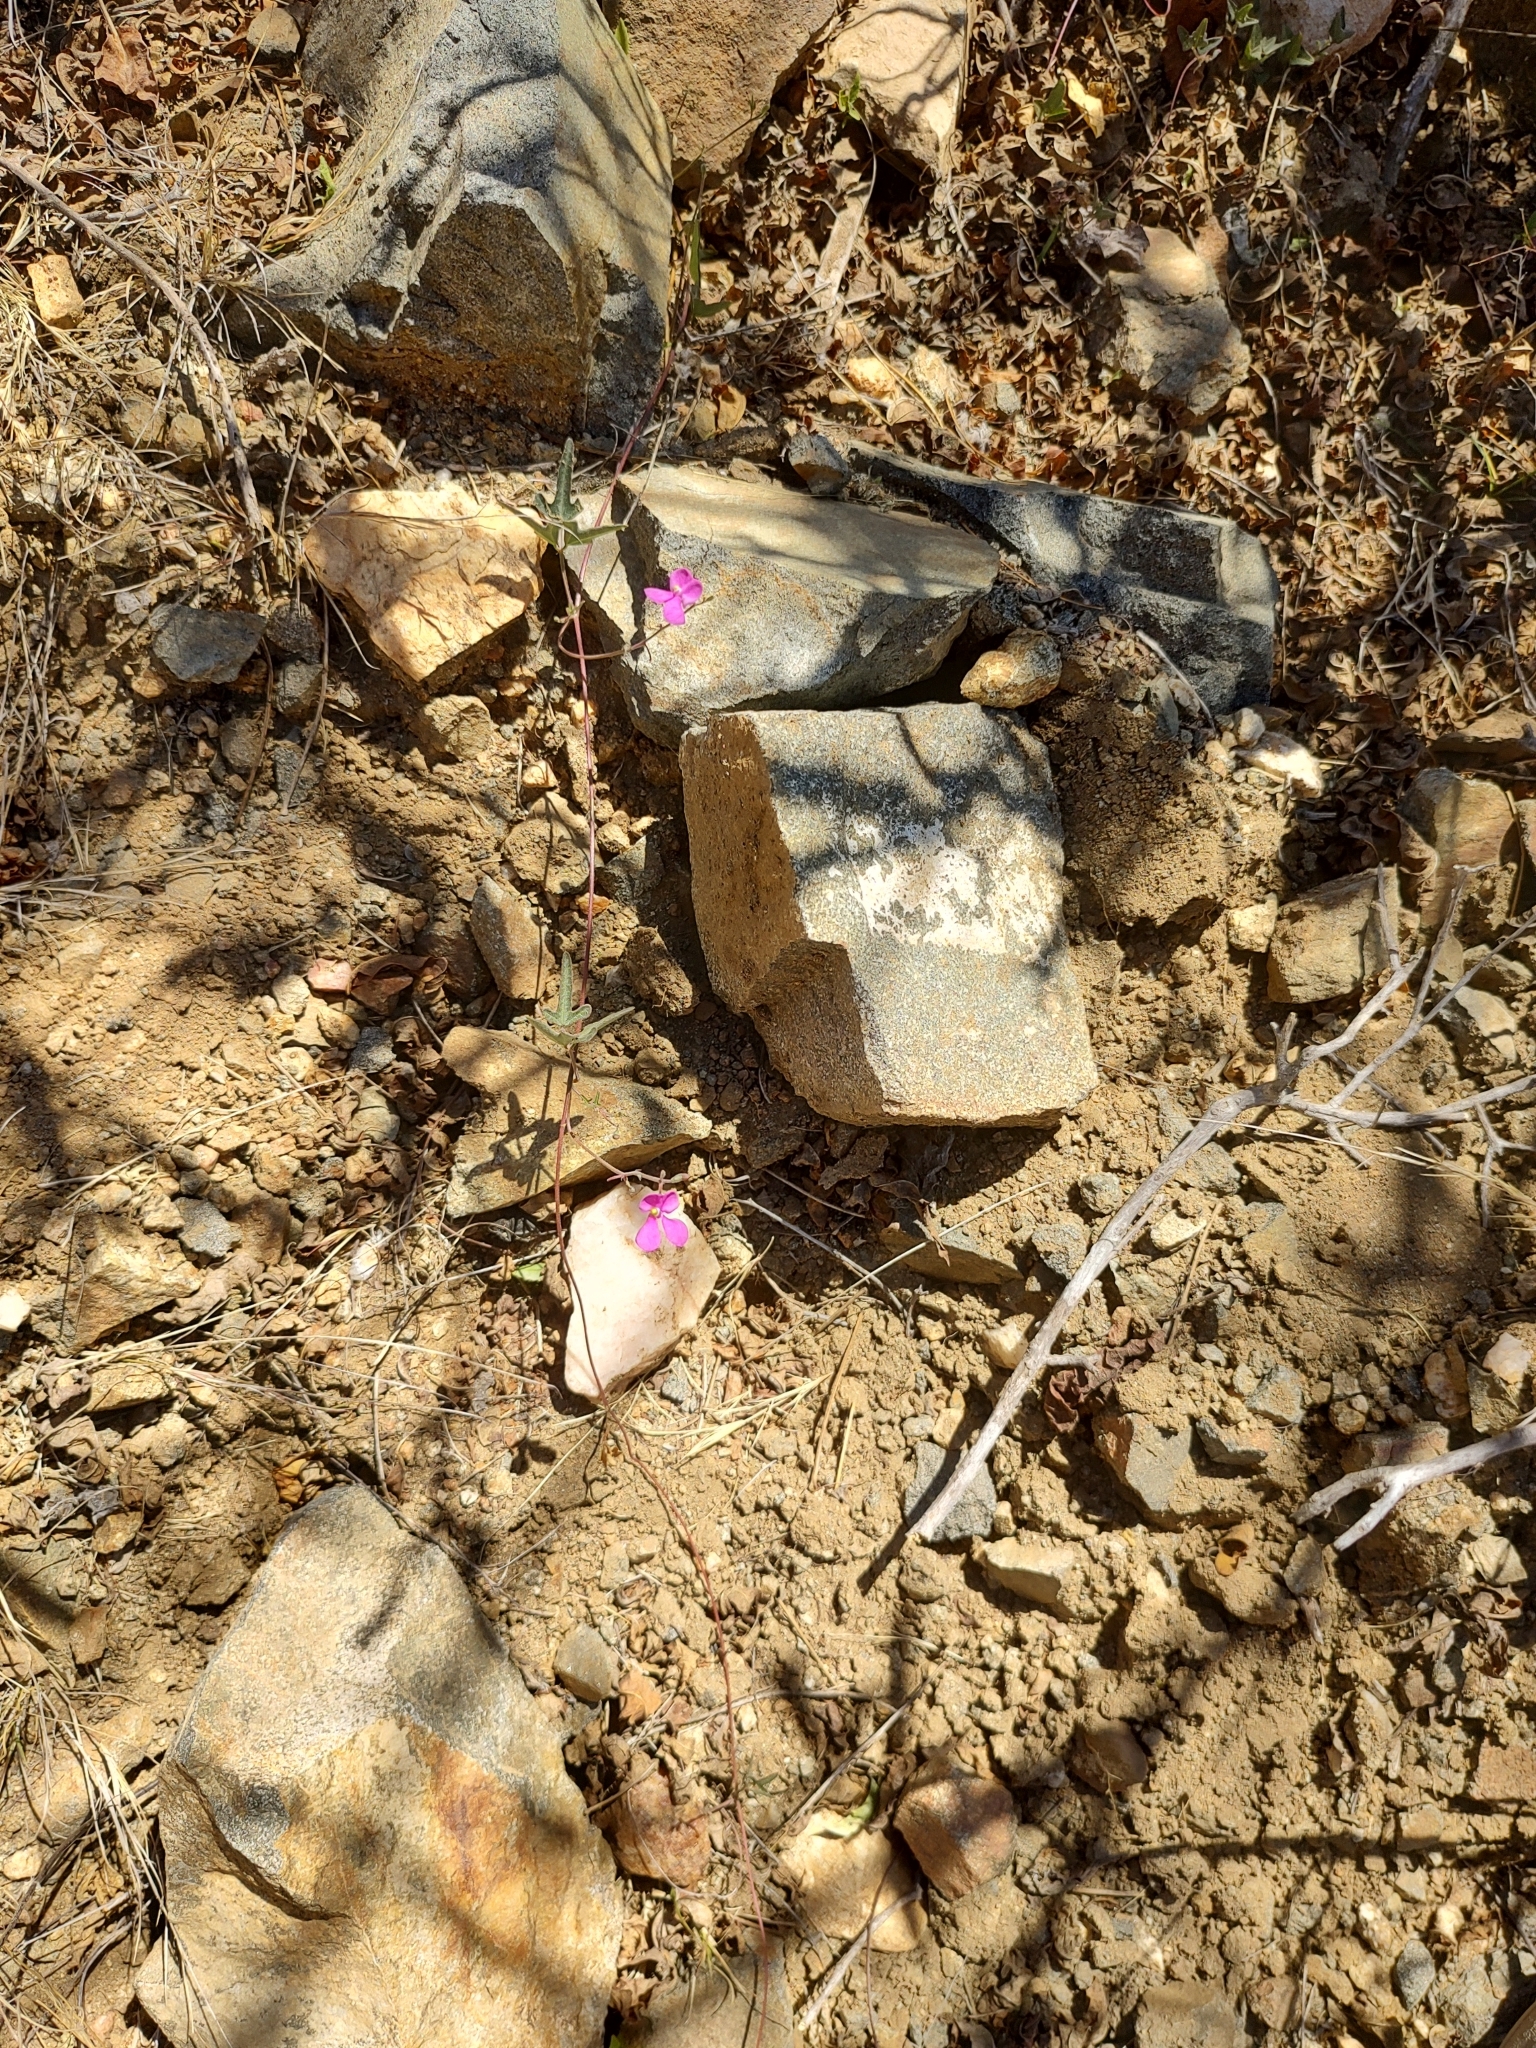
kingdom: Plantae
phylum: Tracheophyta
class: Magnoliopsida
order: Fabales
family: Fabaceae
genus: Phaseolus
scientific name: Phaseolus filiformis
